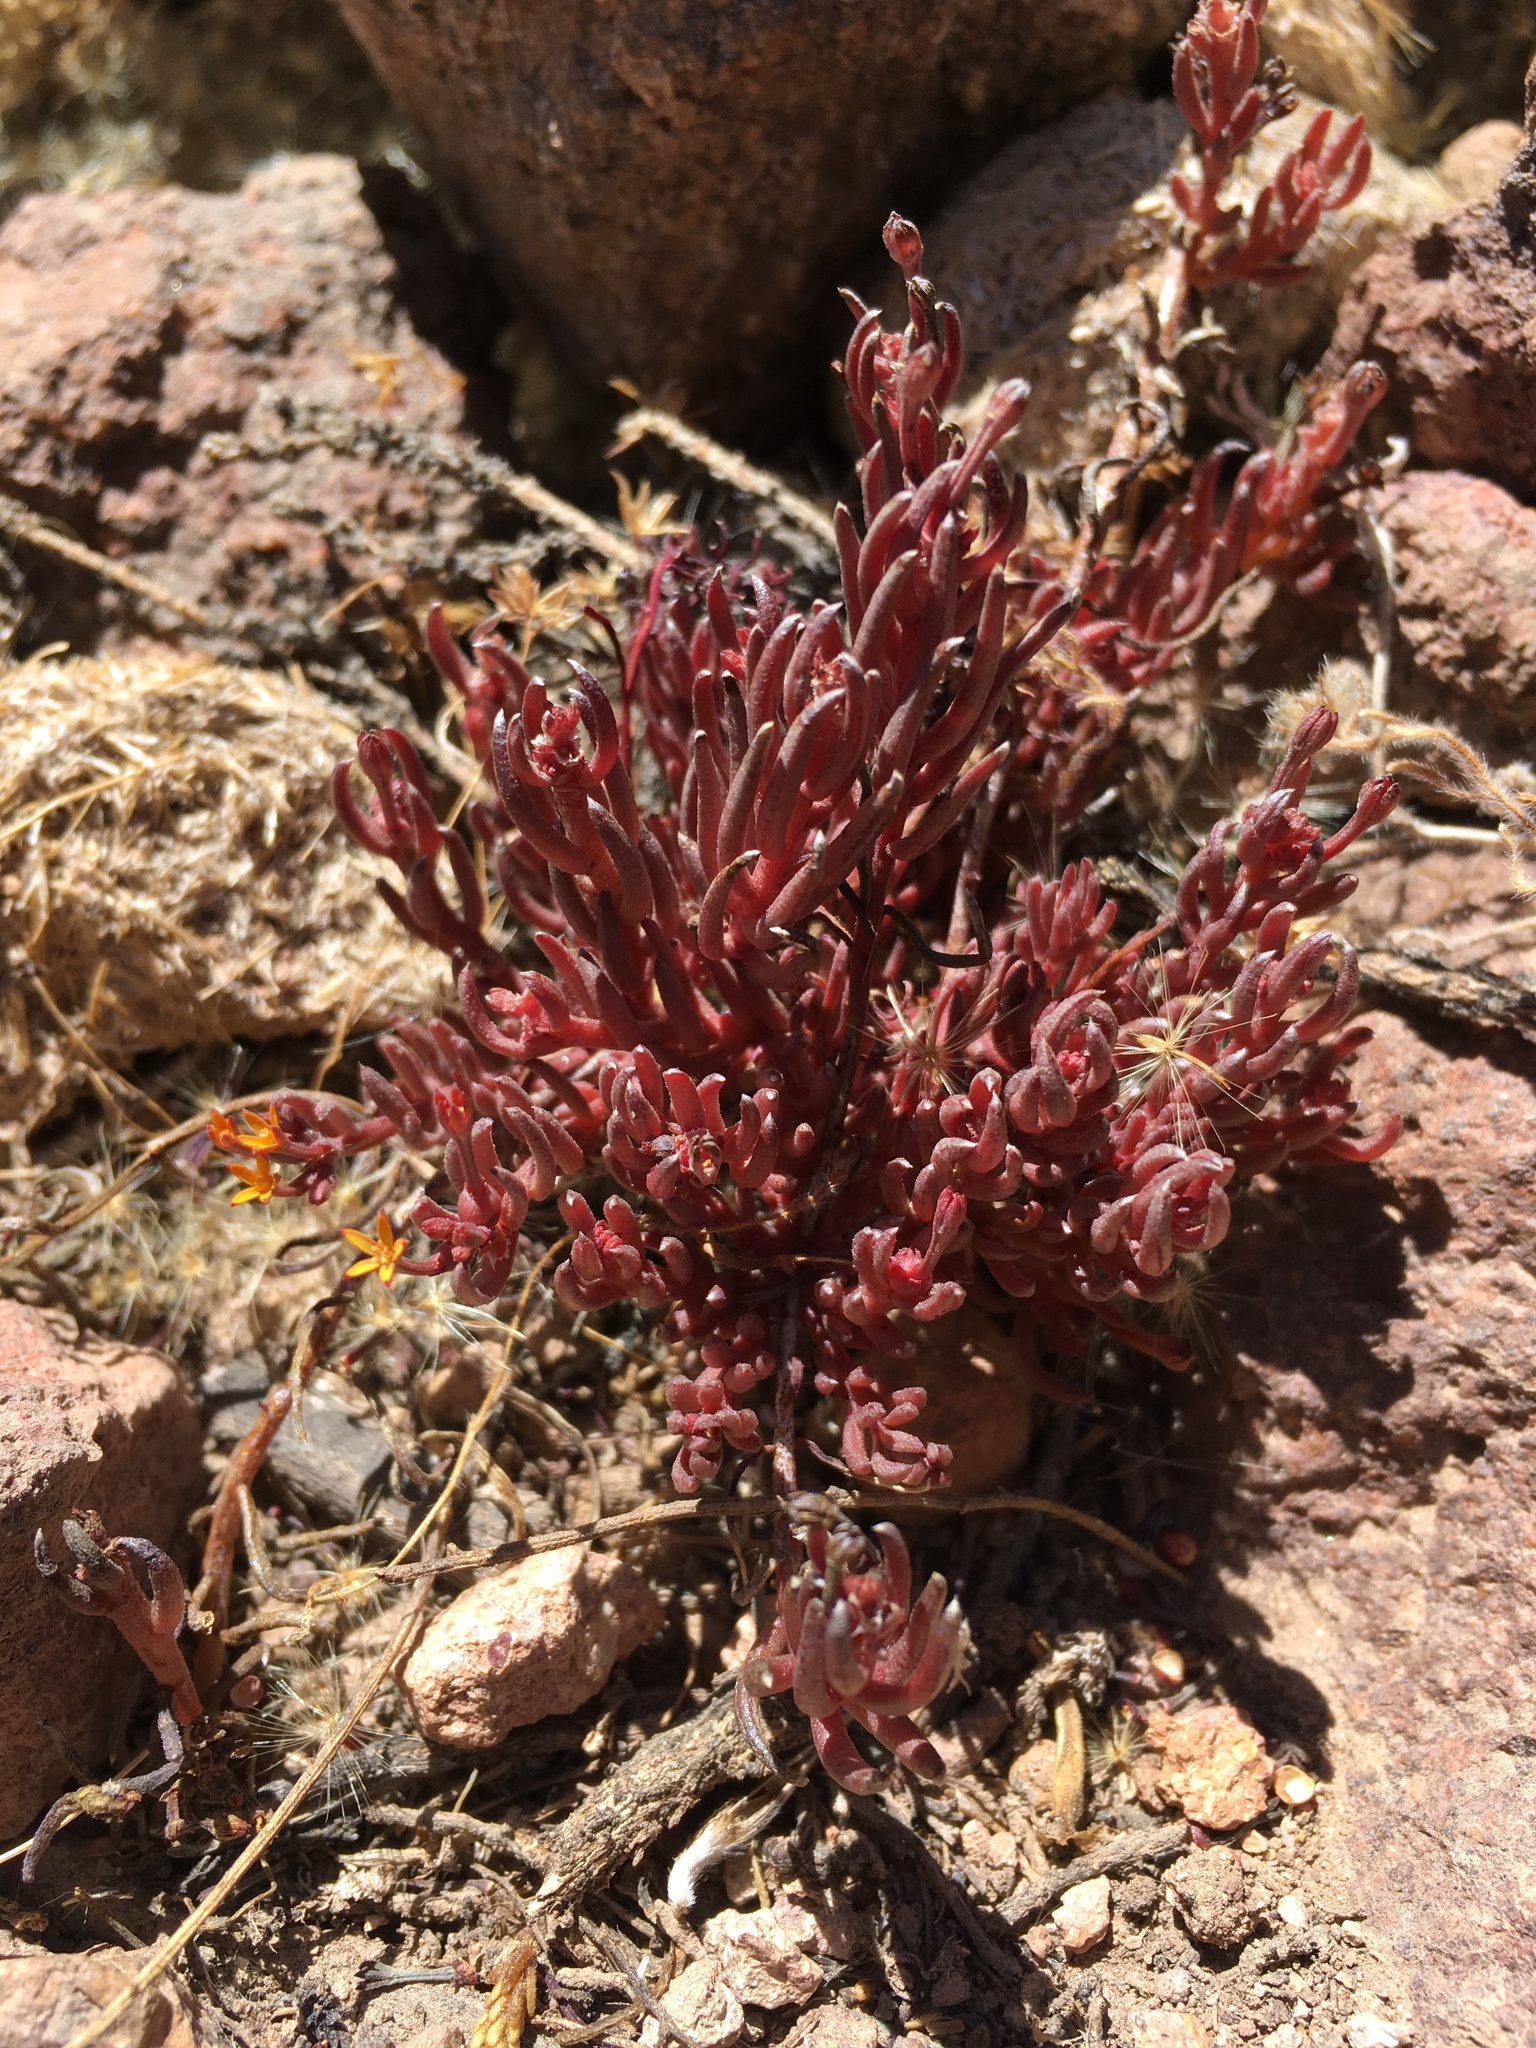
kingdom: Plantae
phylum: Tracheophyta
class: Magnoliopsida
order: Santalales
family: Schoepfiaceae
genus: Quinchamalium
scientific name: Quinchamalium chilense
